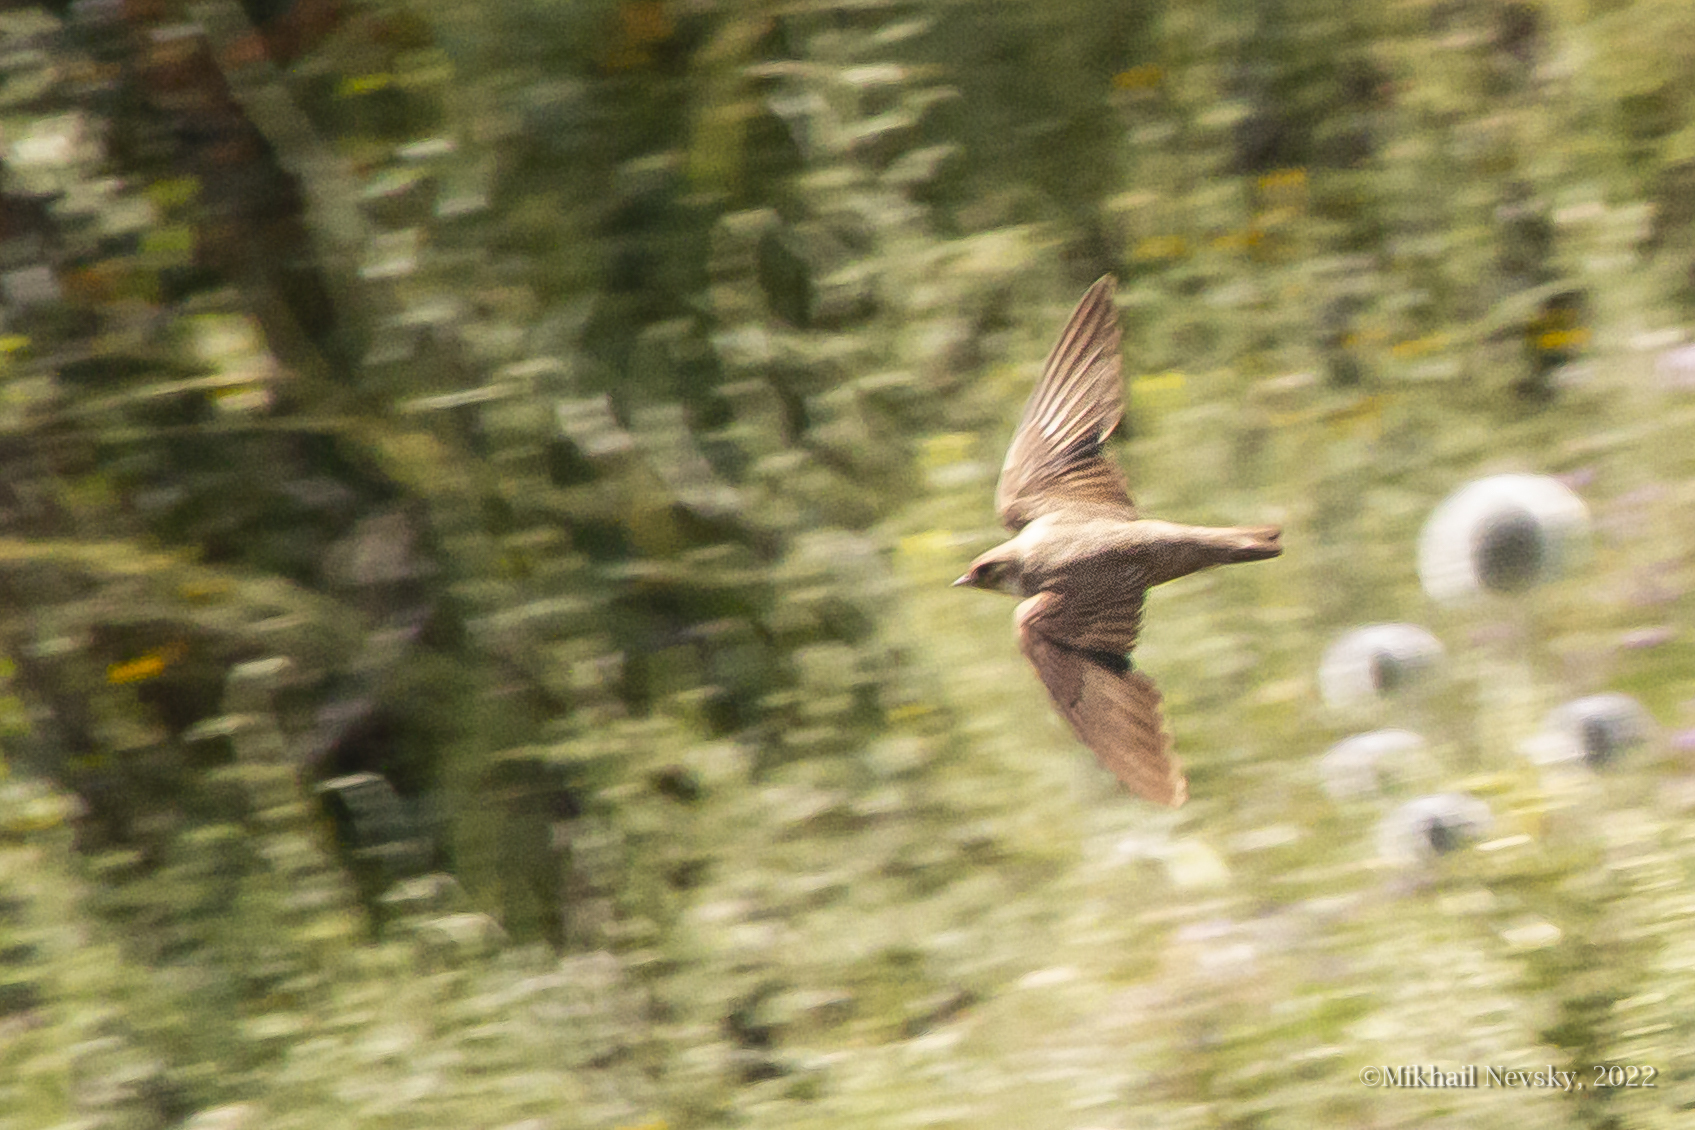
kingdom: Animalia
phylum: Chordata
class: Aves
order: Passeriformes
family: Hirundinidae
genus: Ptyonoprogne
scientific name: Ptyonoprogne rupestris
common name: Eurasian crag martin
